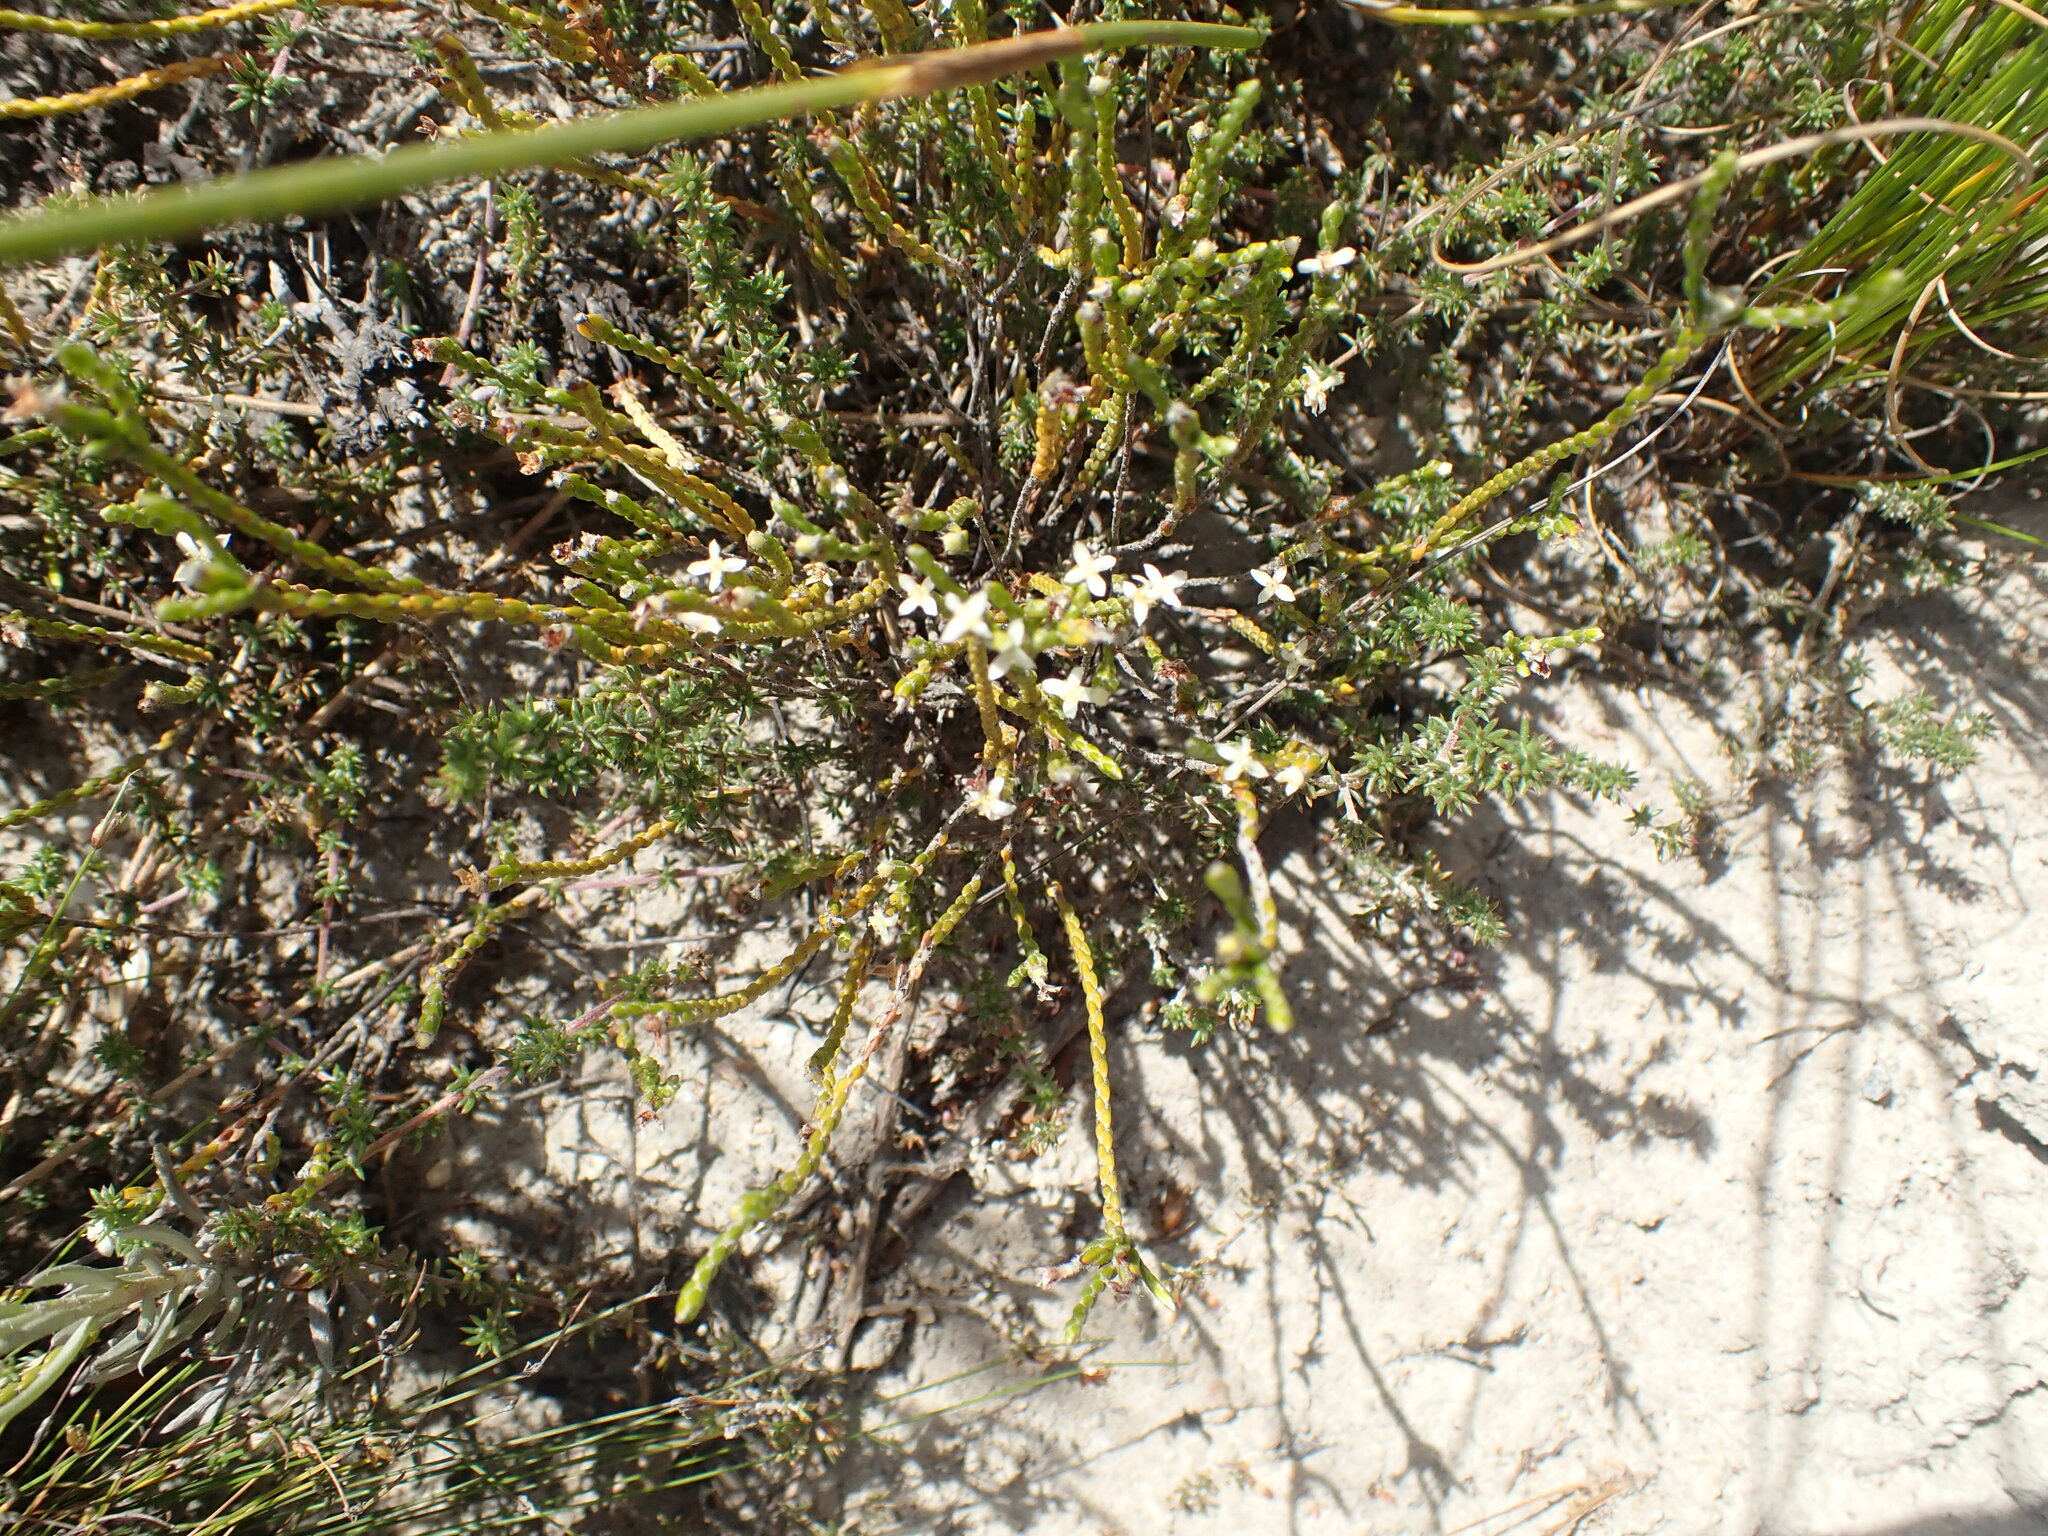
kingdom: Plantae
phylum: Tracheophyta
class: Magnoliopsida
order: Malvales
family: Thymelaeaceae
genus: Lachnaea
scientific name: Lachnaea ericoides
